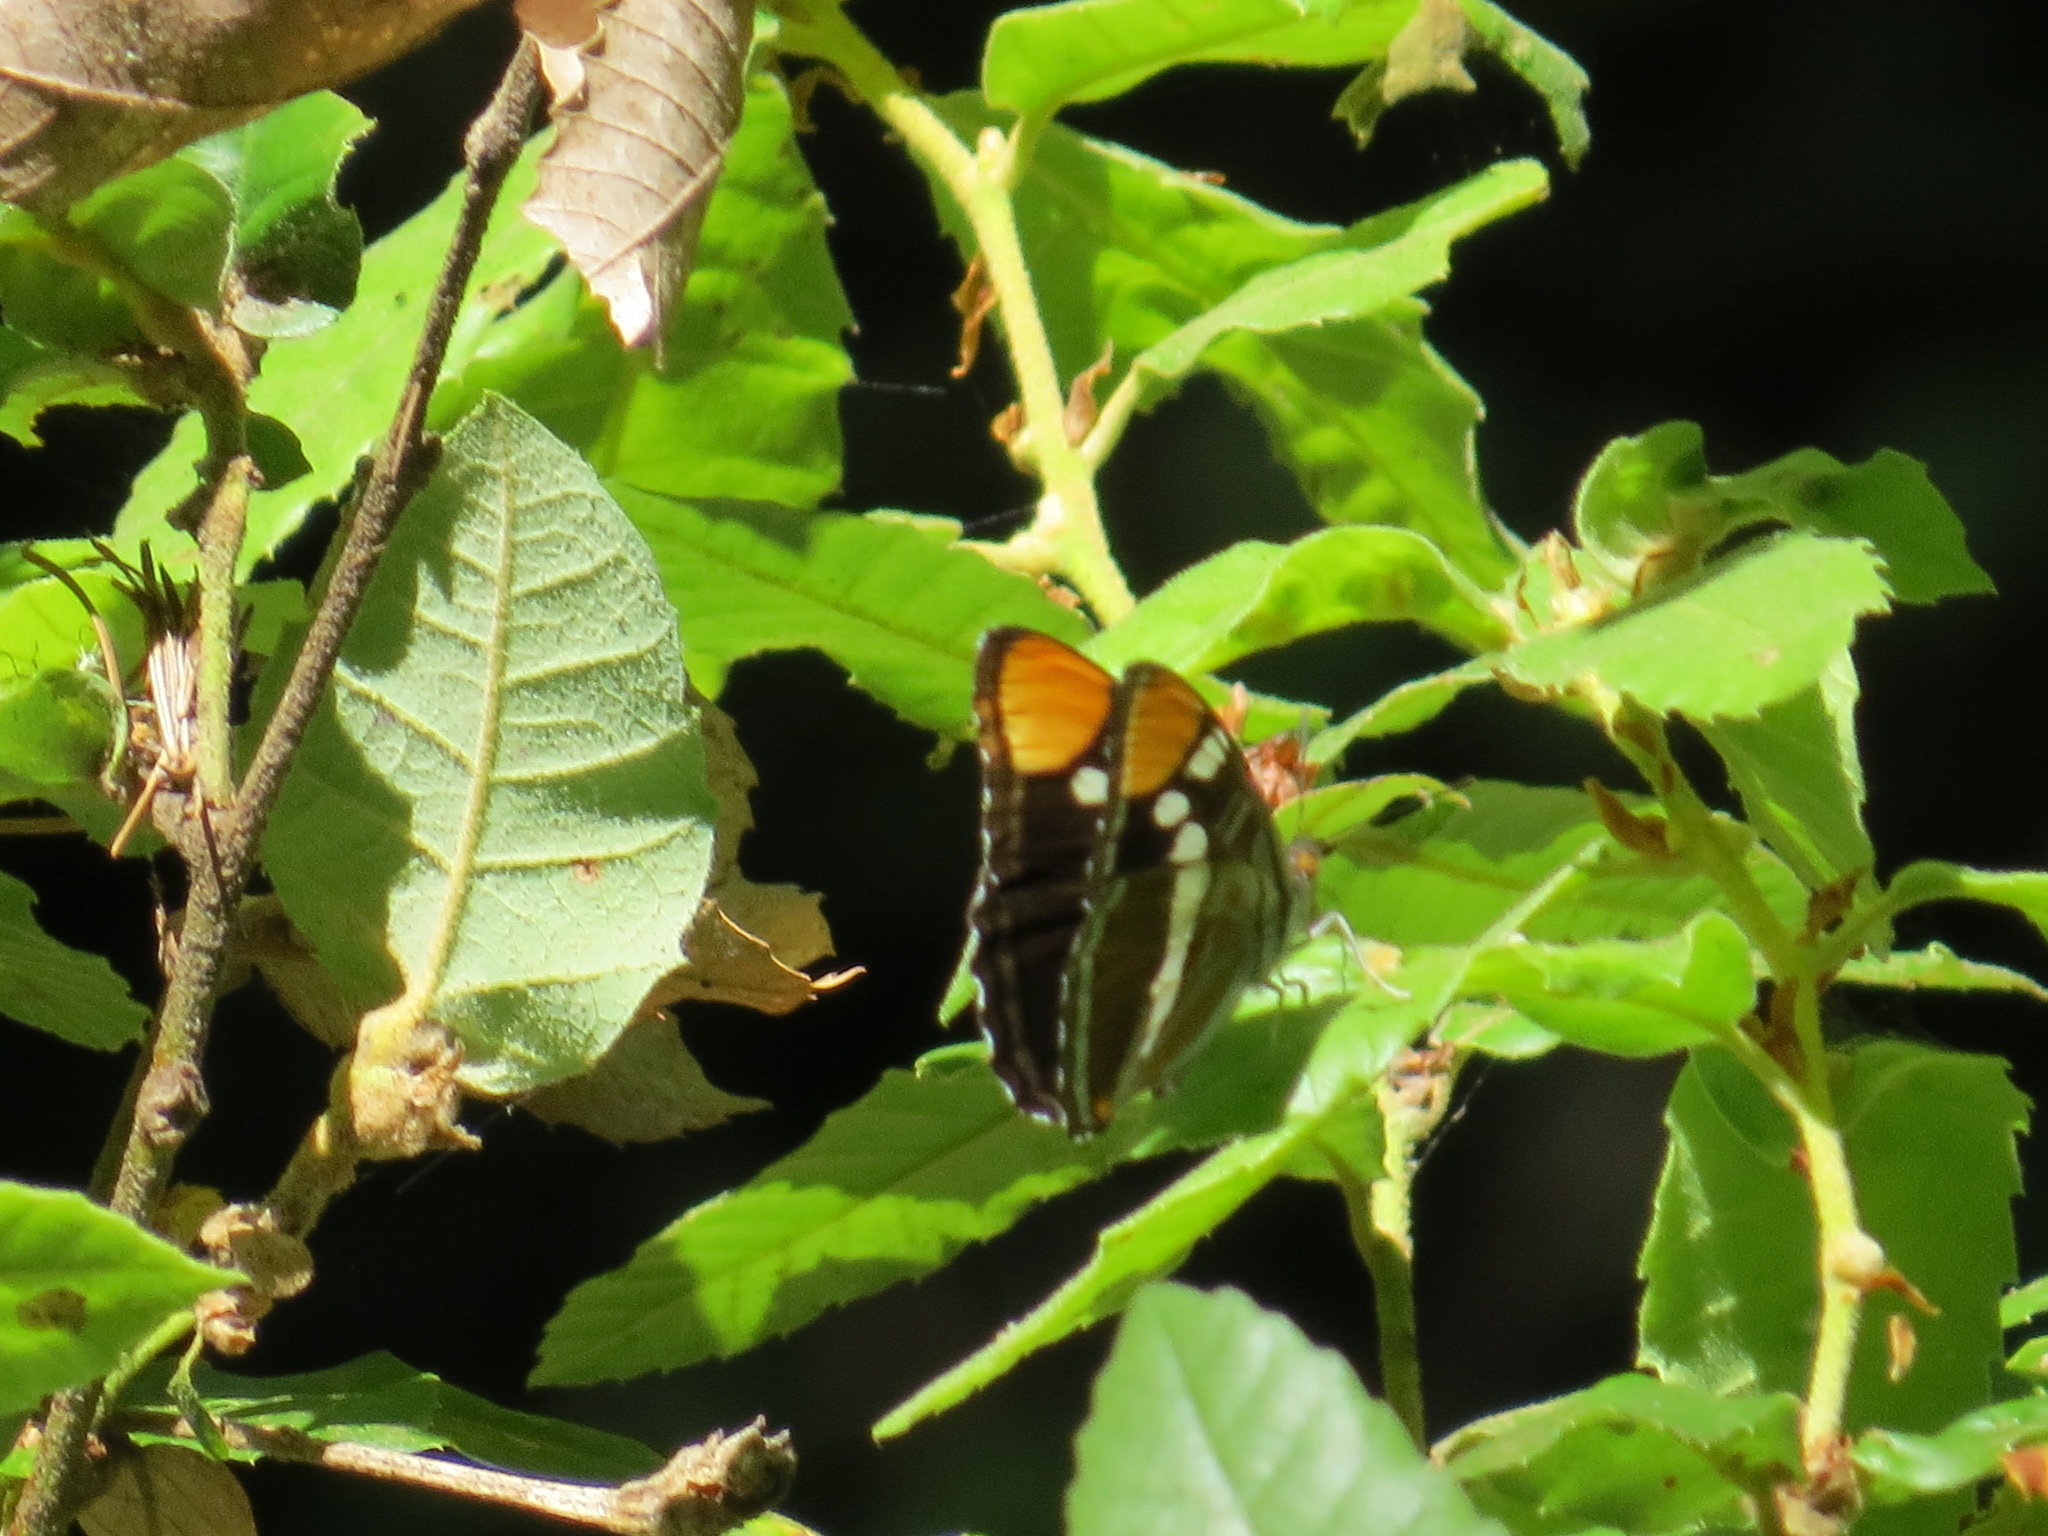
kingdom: Animalia
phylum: Arthropoda
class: Insecta
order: Lepidoptera
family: Nymphalidae
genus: Limenitis
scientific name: Limenitis bredowii
